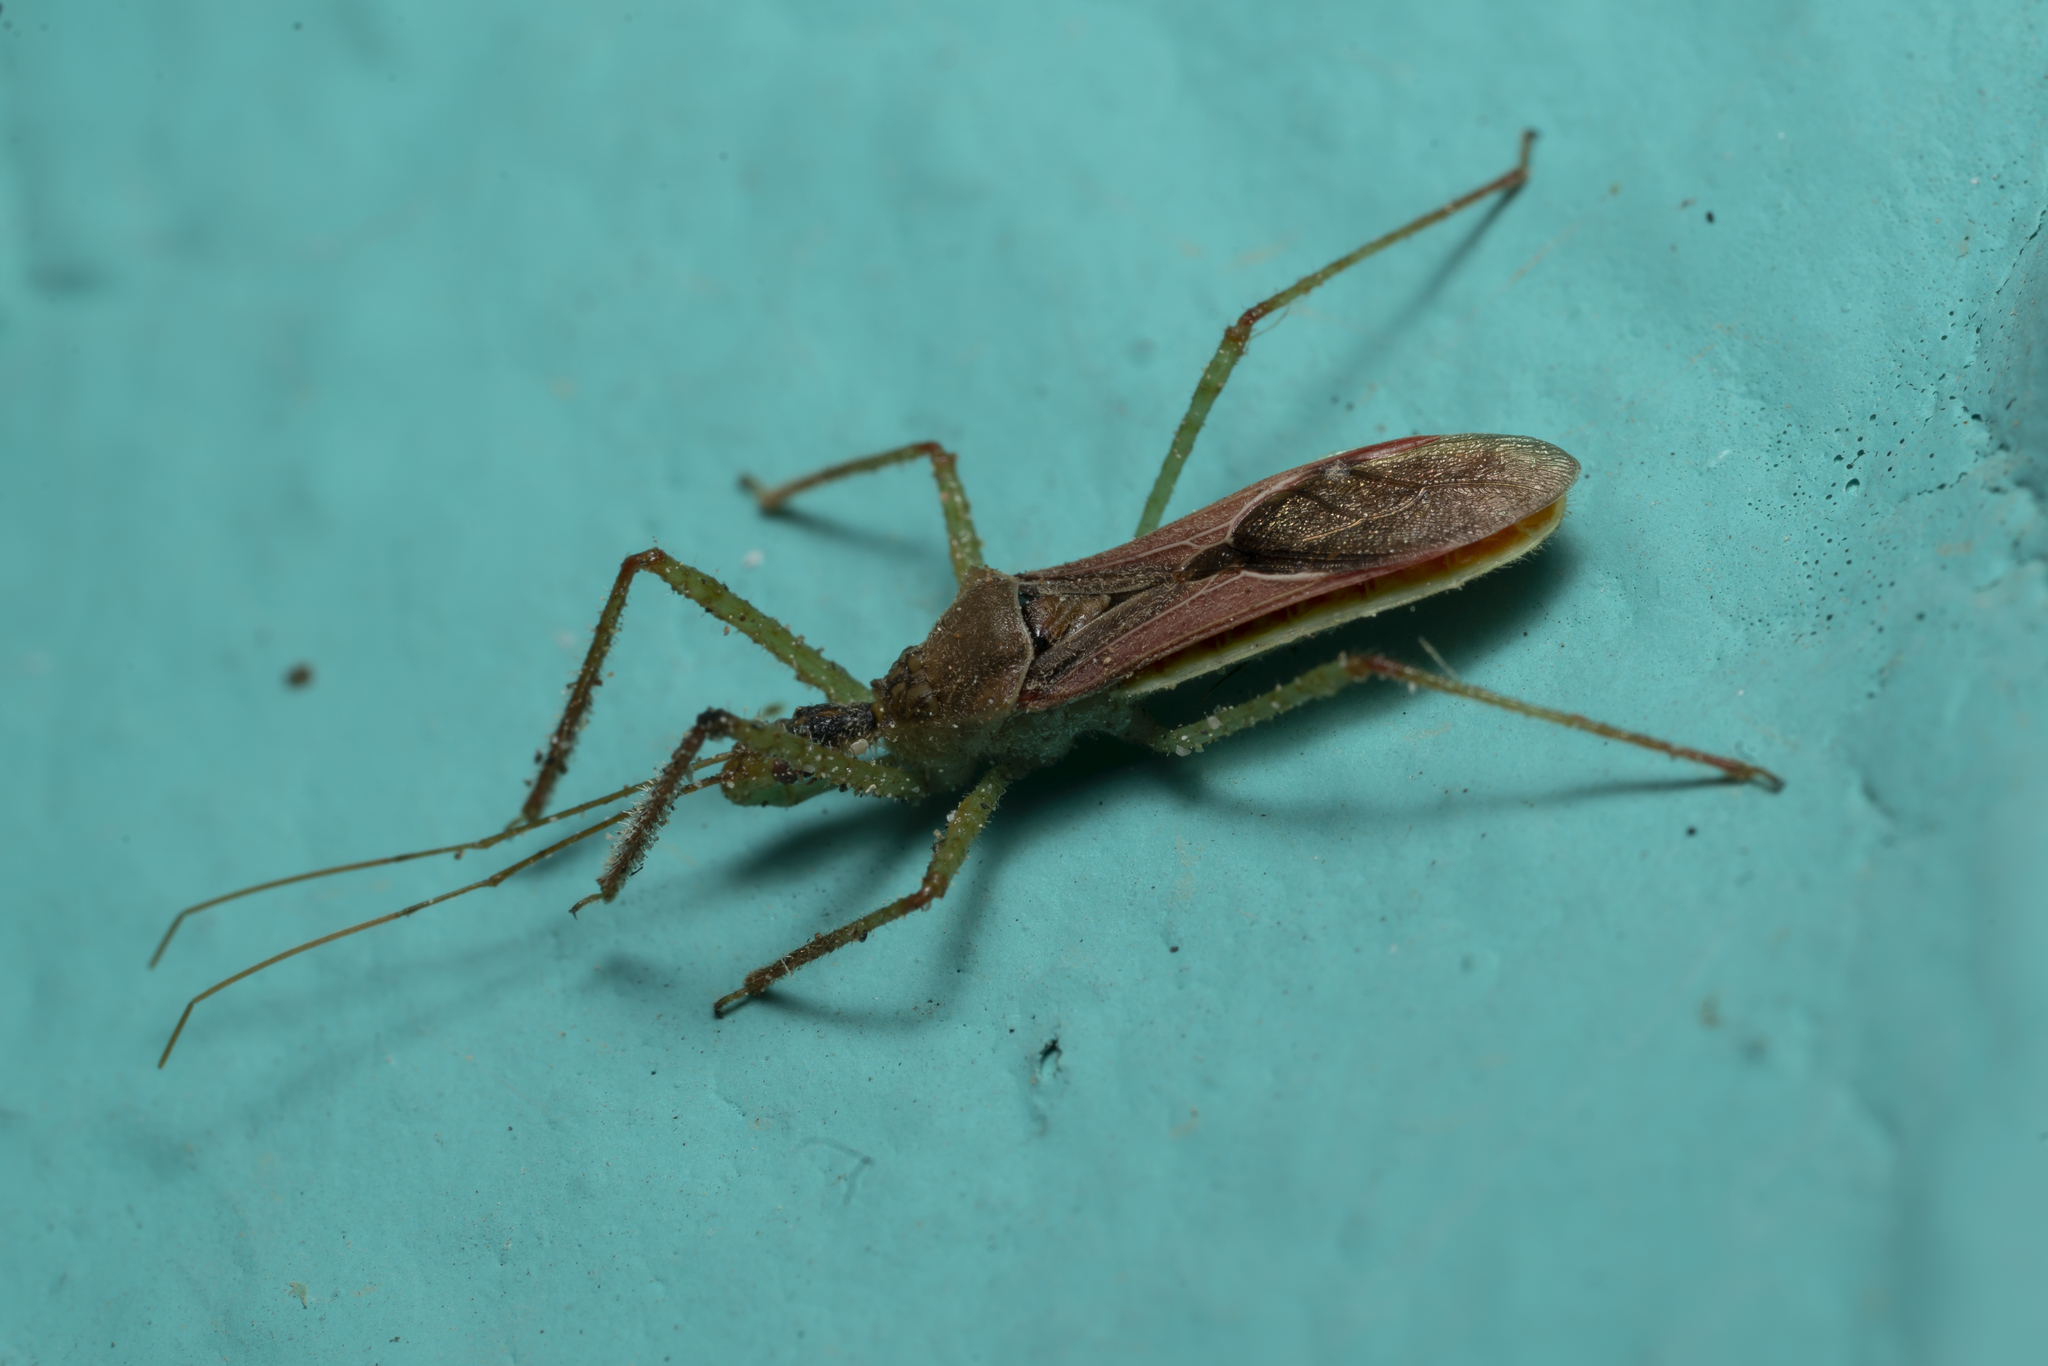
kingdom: Animalia
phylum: Arthropoda
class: Insecta
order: Hemiptera
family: Reduviidae
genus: Zelus
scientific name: Zelus renardii
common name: Assassin bug
